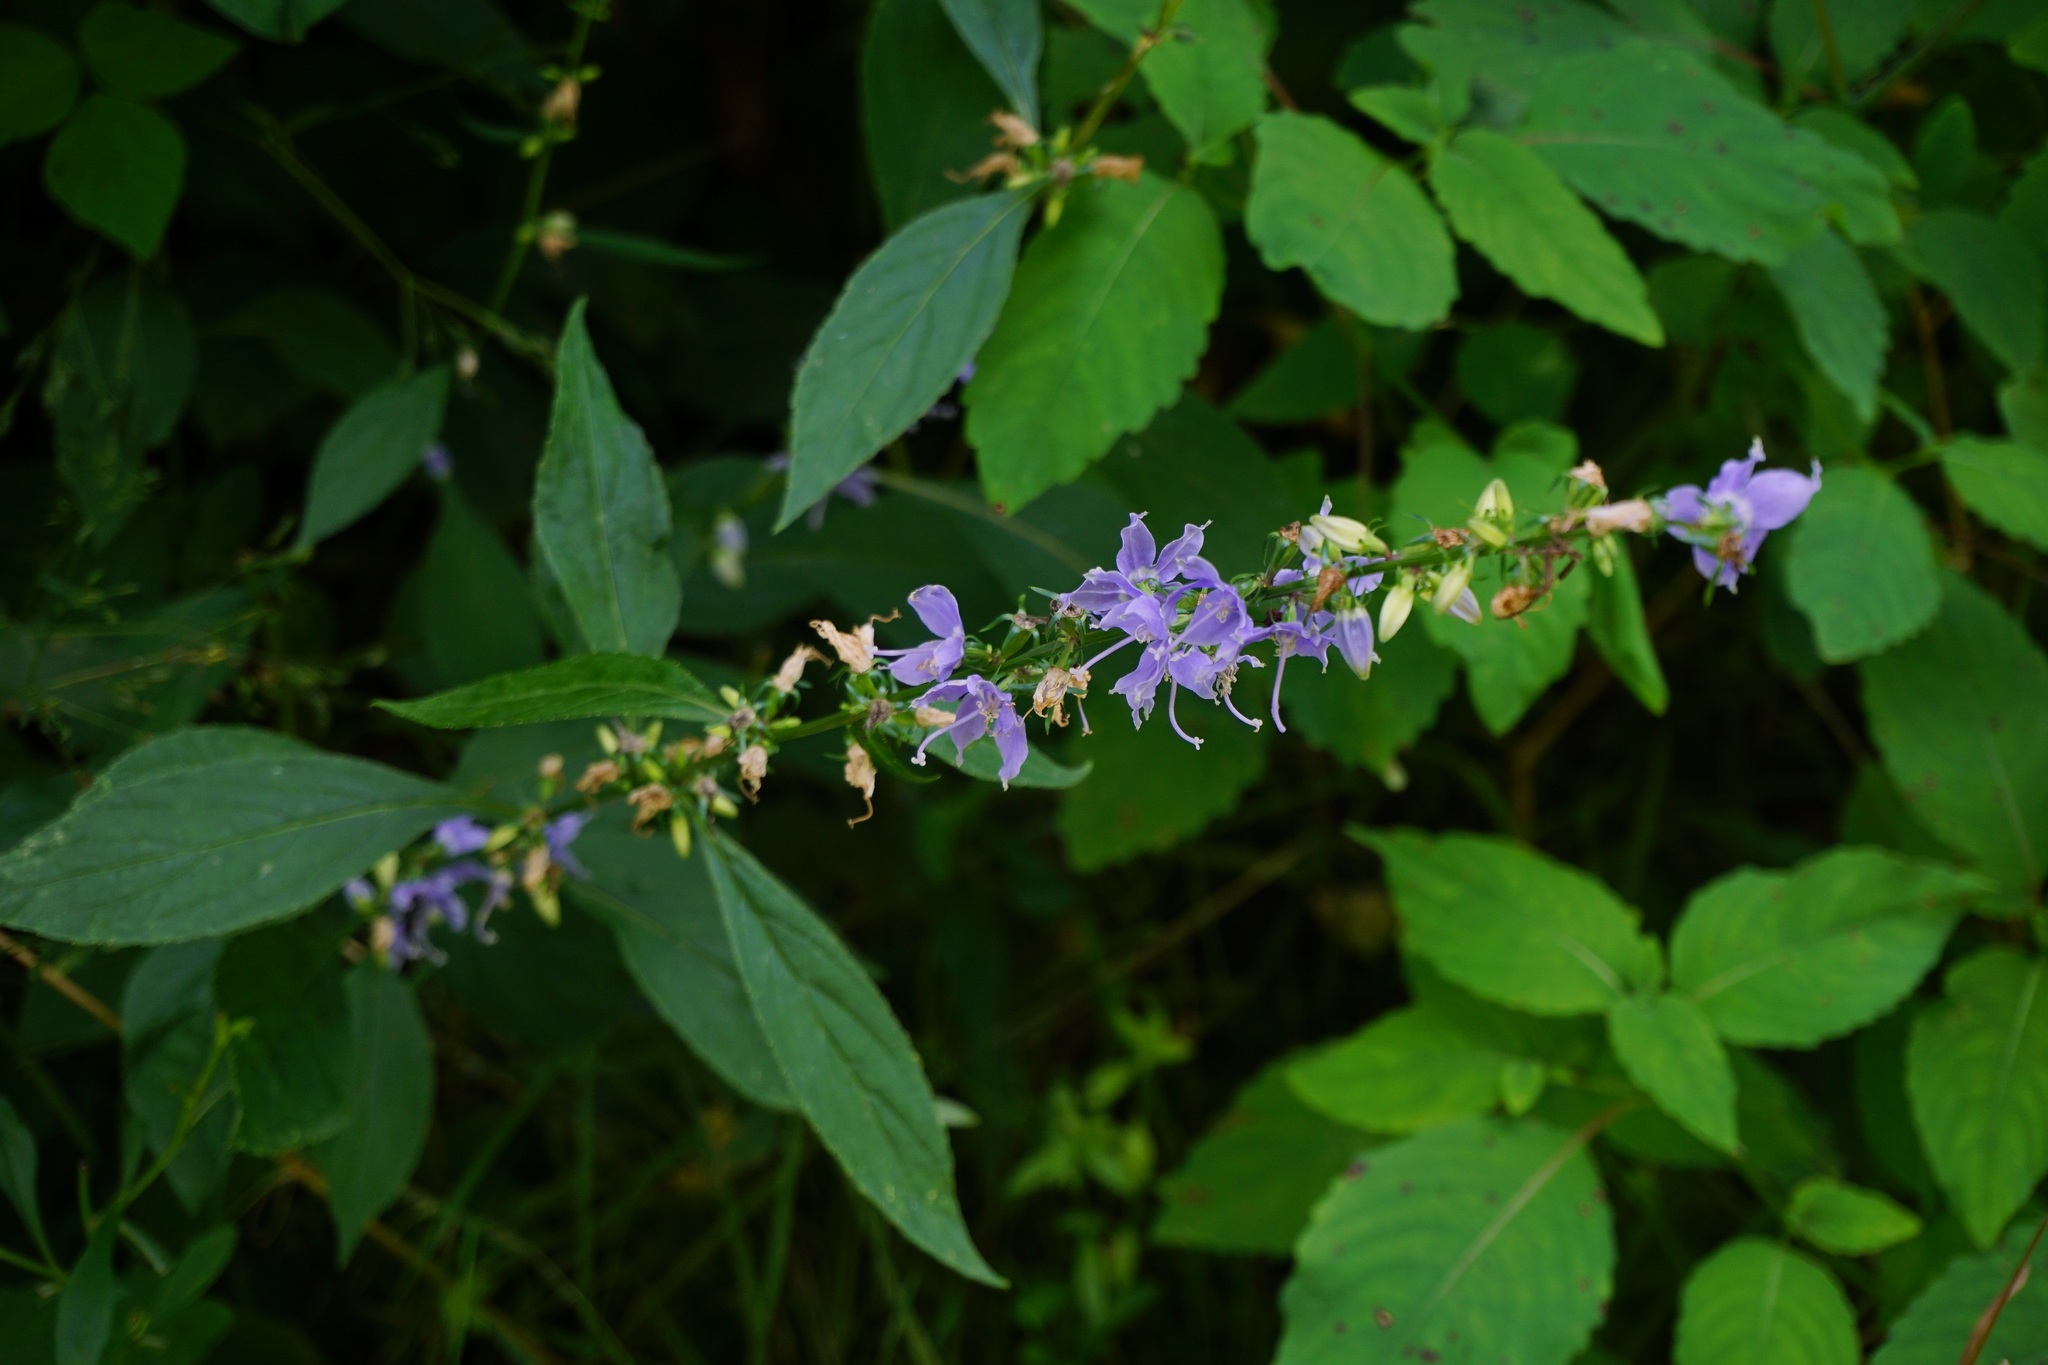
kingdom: Plantae
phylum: Tracheophyta
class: Magnoliopsida
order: Asterales
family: Campanulaceae
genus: Campanulastrum
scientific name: Campanulastrum americanum
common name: American bellflower
